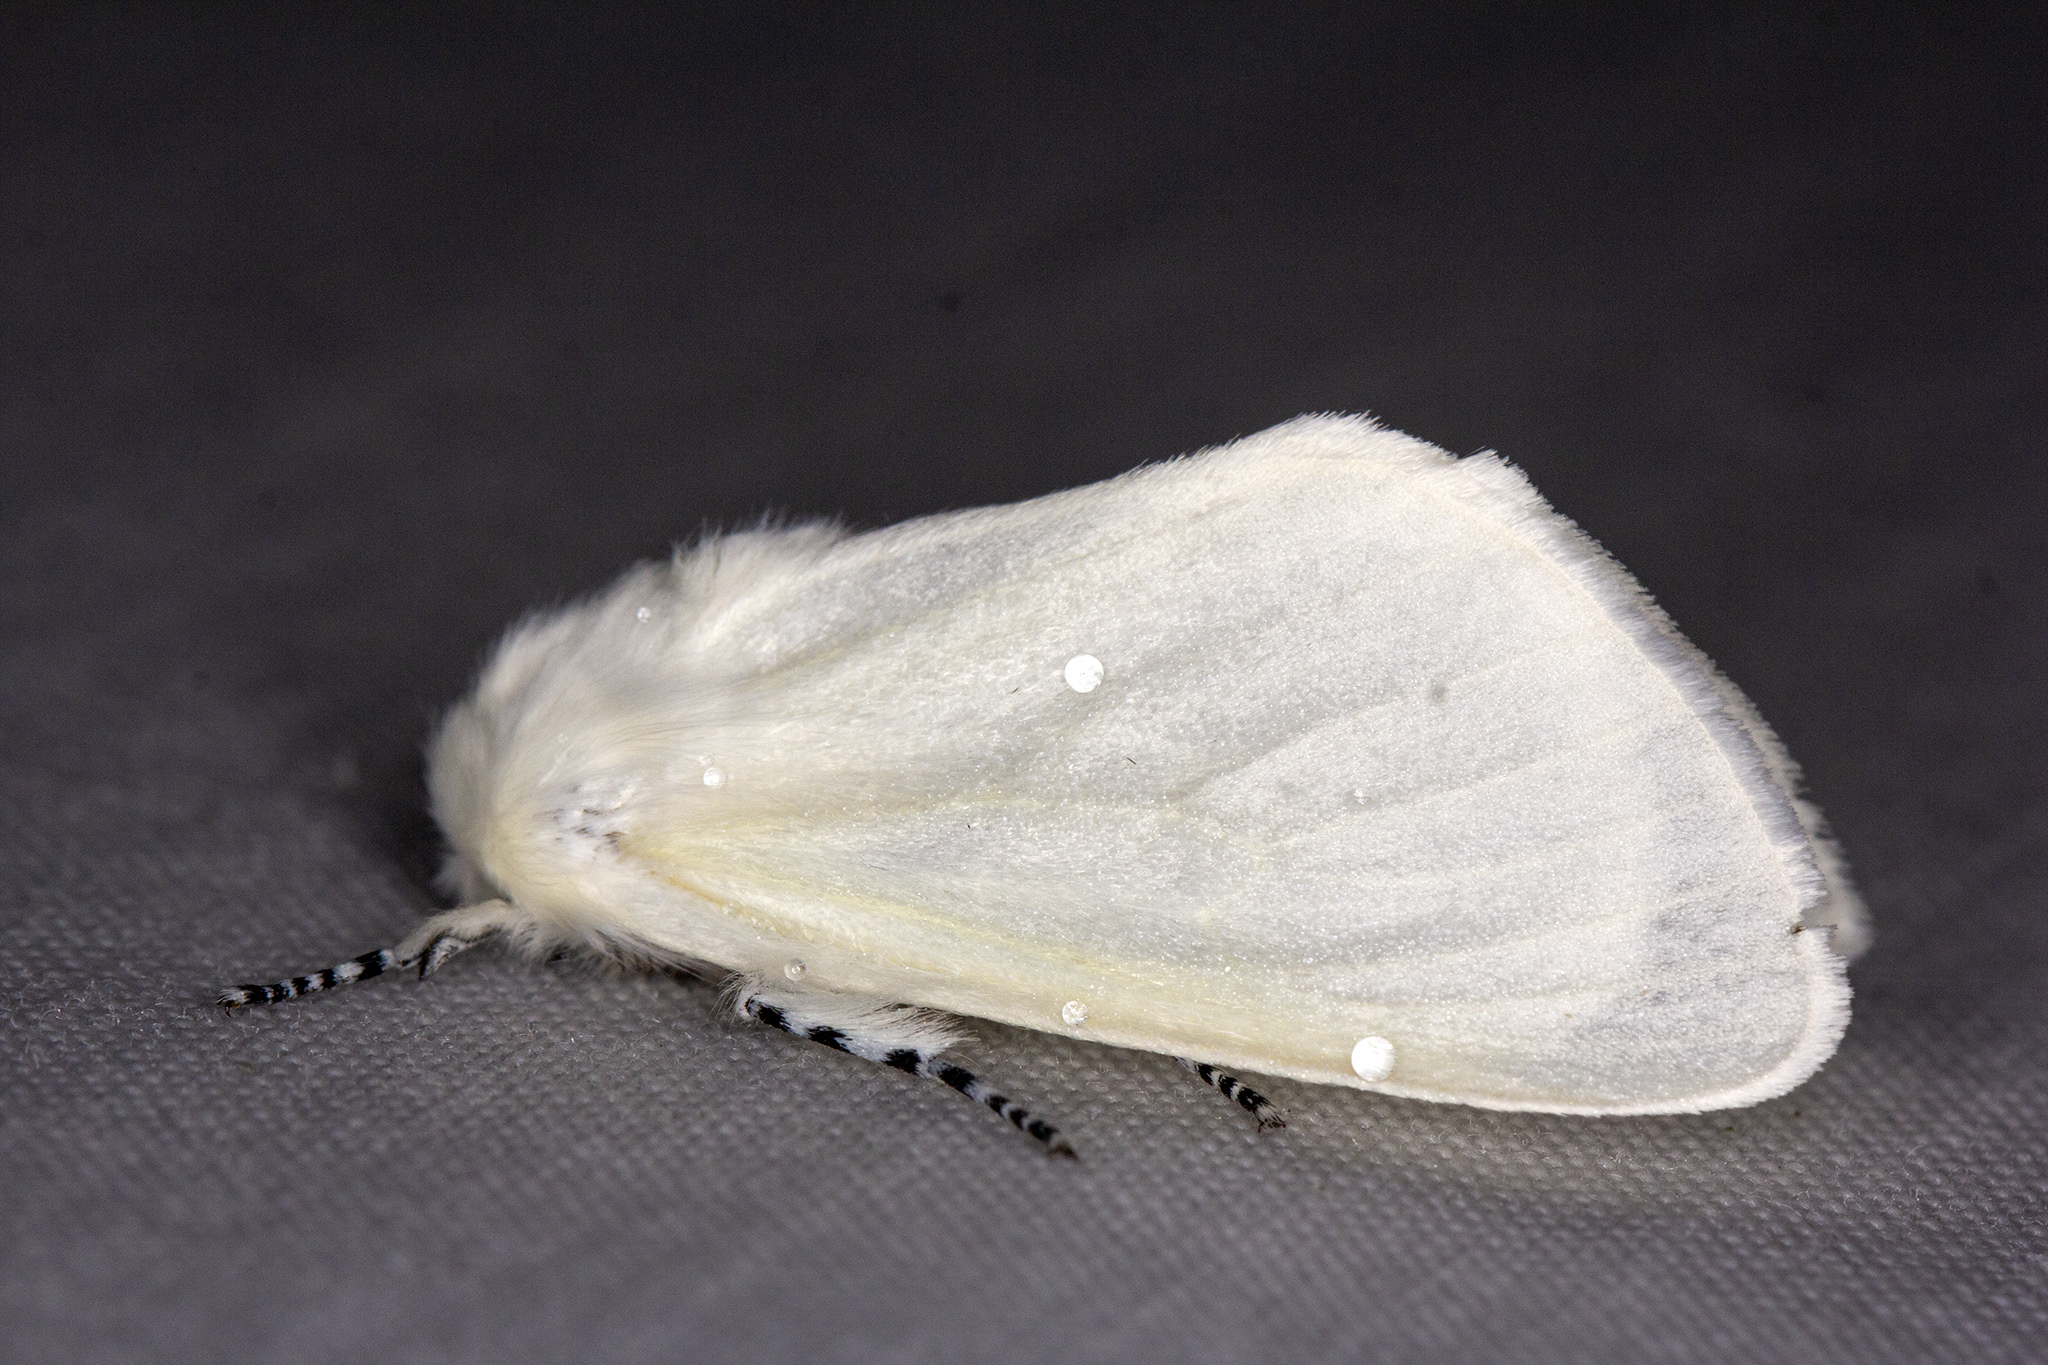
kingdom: Animalia
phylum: Arthropoda
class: Insecta
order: Lepidoptera
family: Erebidae
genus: Leucoma
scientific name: Leucoma salicis
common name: White satin moth
